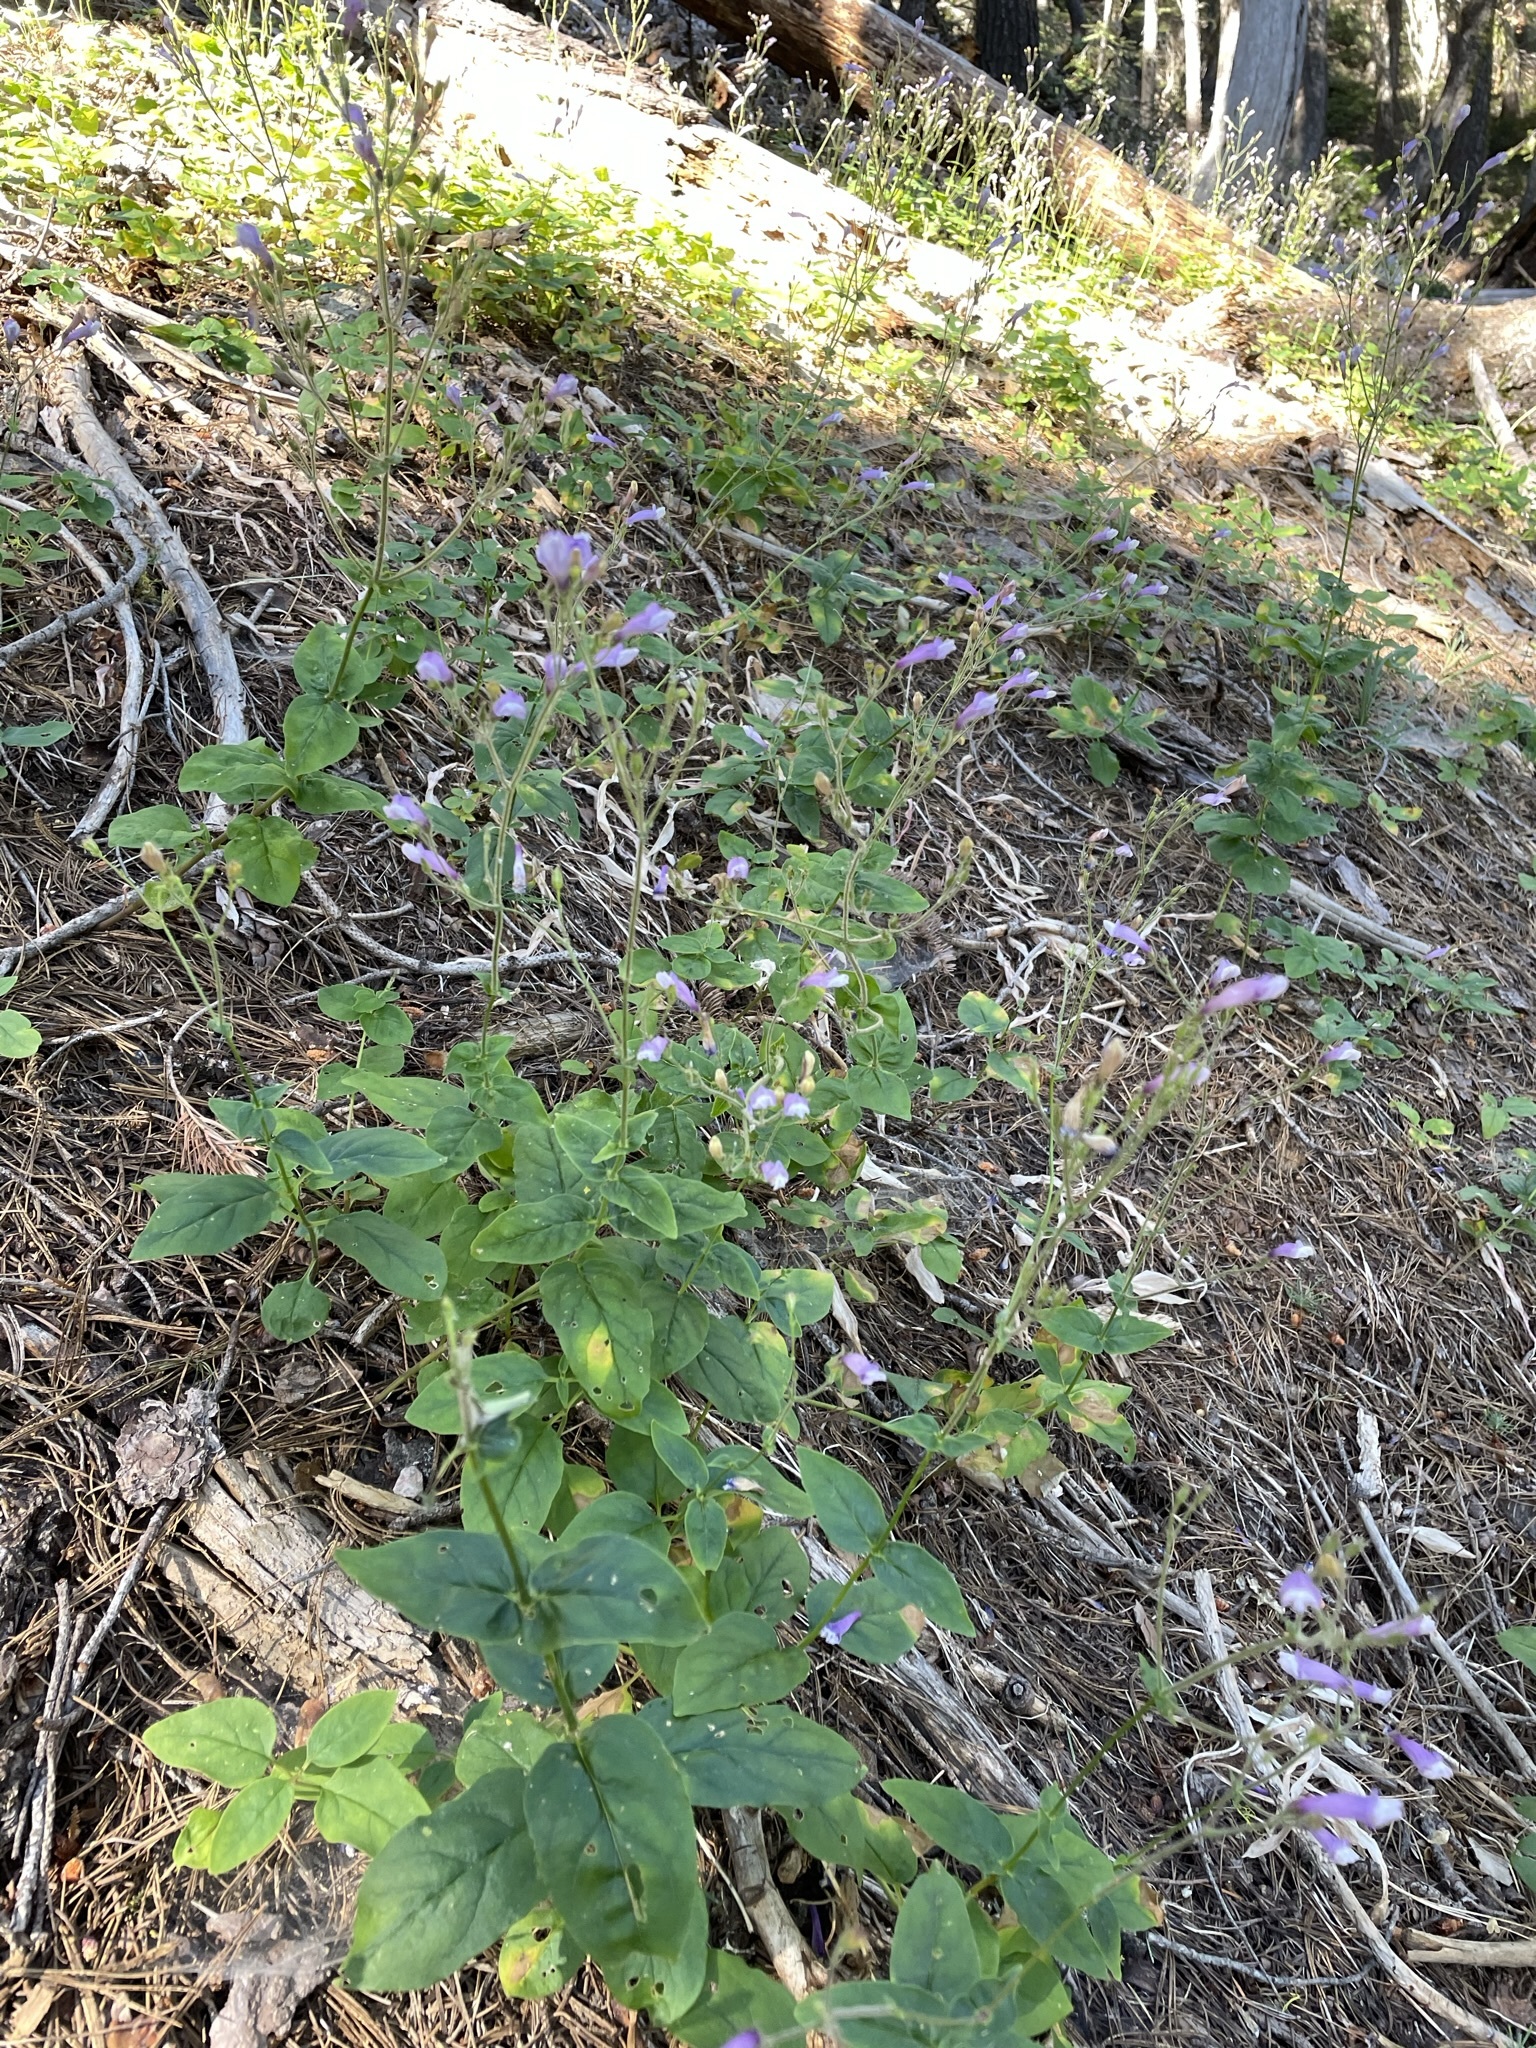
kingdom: Plantae
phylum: Tracheophyta
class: Magnoliopsida
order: Lamiales
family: Plantaginaceae
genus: Penstemon
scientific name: Penstemon personatus
